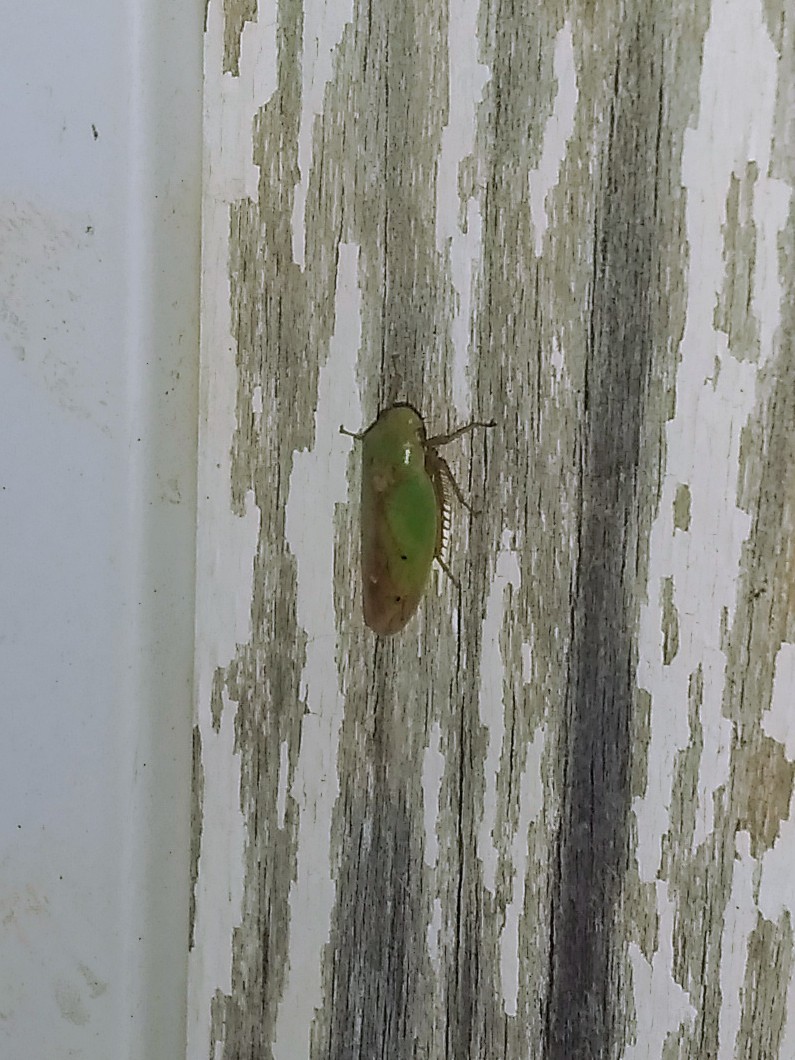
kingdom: Animalia
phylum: Arthropoda
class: Insecta
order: Hemiptera
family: Cicadellidae
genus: Ponana
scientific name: Ponana
